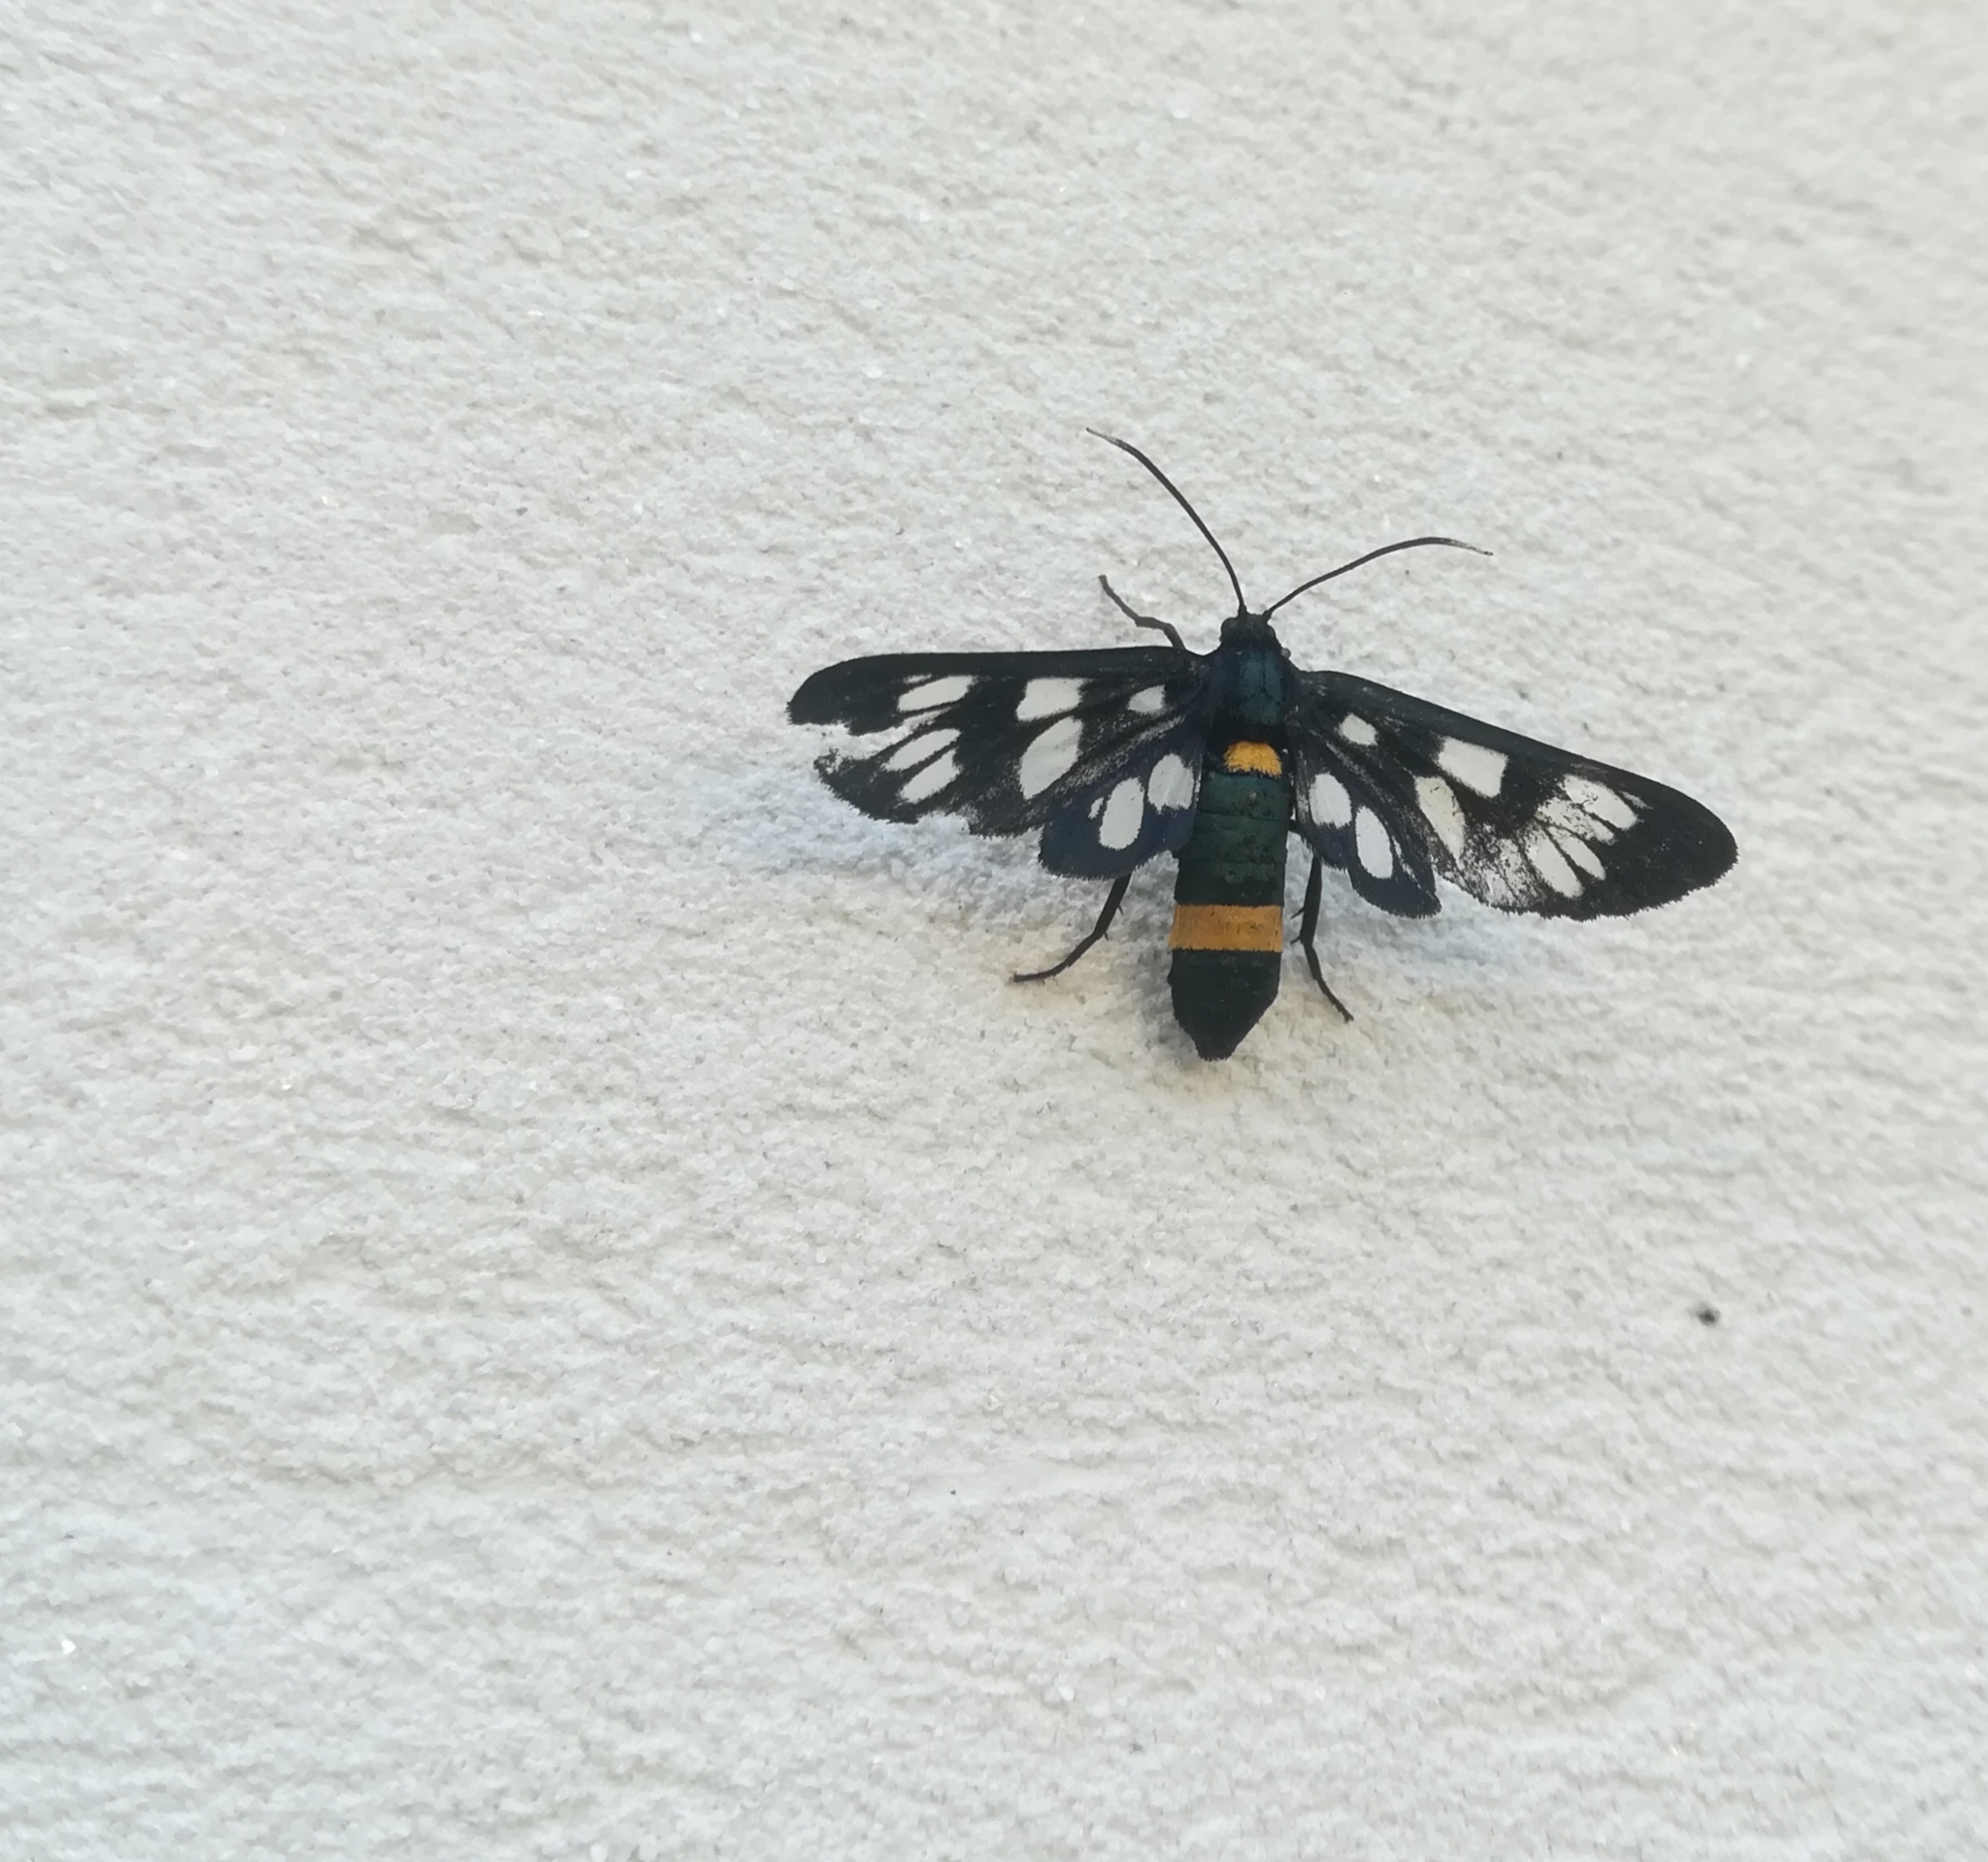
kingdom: Animalia
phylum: Arthropoda
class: Insecta
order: Lepidoptera
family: Erebidae
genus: Amata
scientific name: Amata phegea
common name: Nine-spotted
